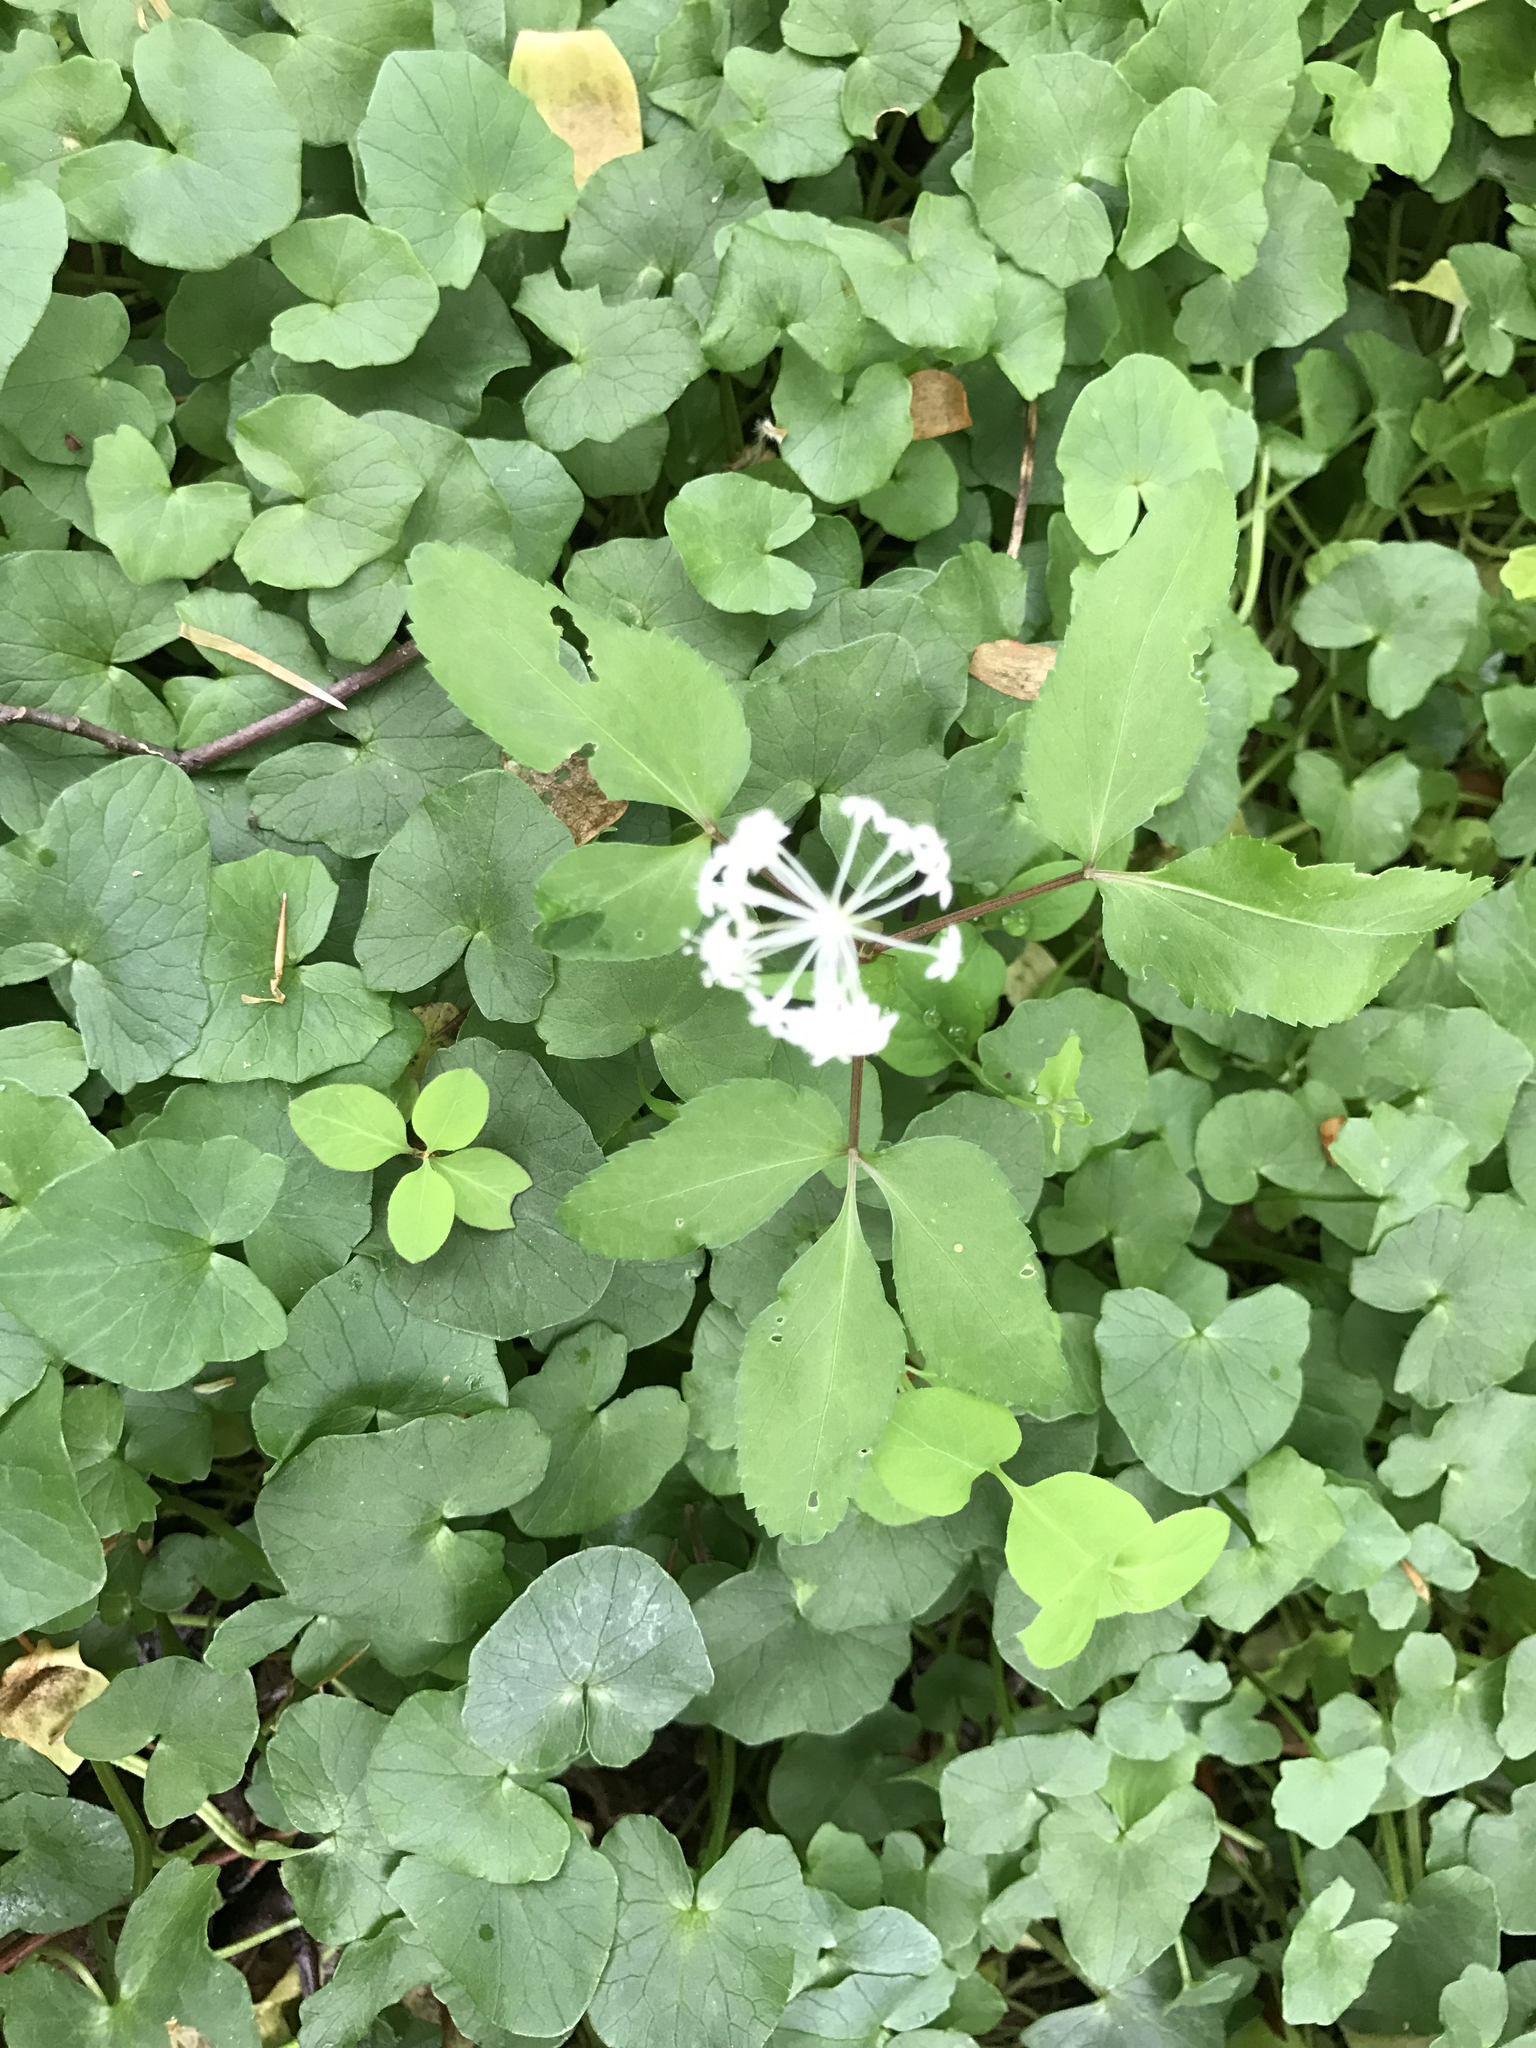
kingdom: Plantae
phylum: Tracheophyta
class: Magnoliopsida
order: Apiales
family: Araliaceae
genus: Panax
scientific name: Panax trifolius
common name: Dwarf ginseng
